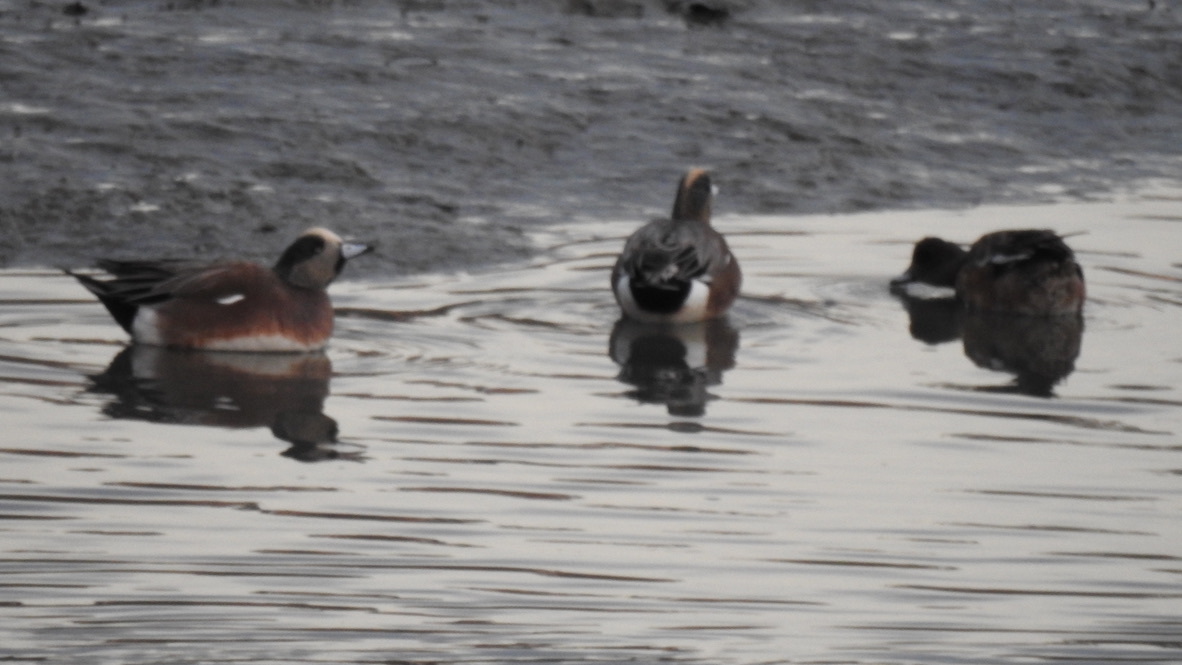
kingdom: Animalia
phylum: Chordata
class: Aves
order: Anseriformes
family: Anatidae
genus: Mareca
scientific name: Mareca americana
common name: American wigeon
